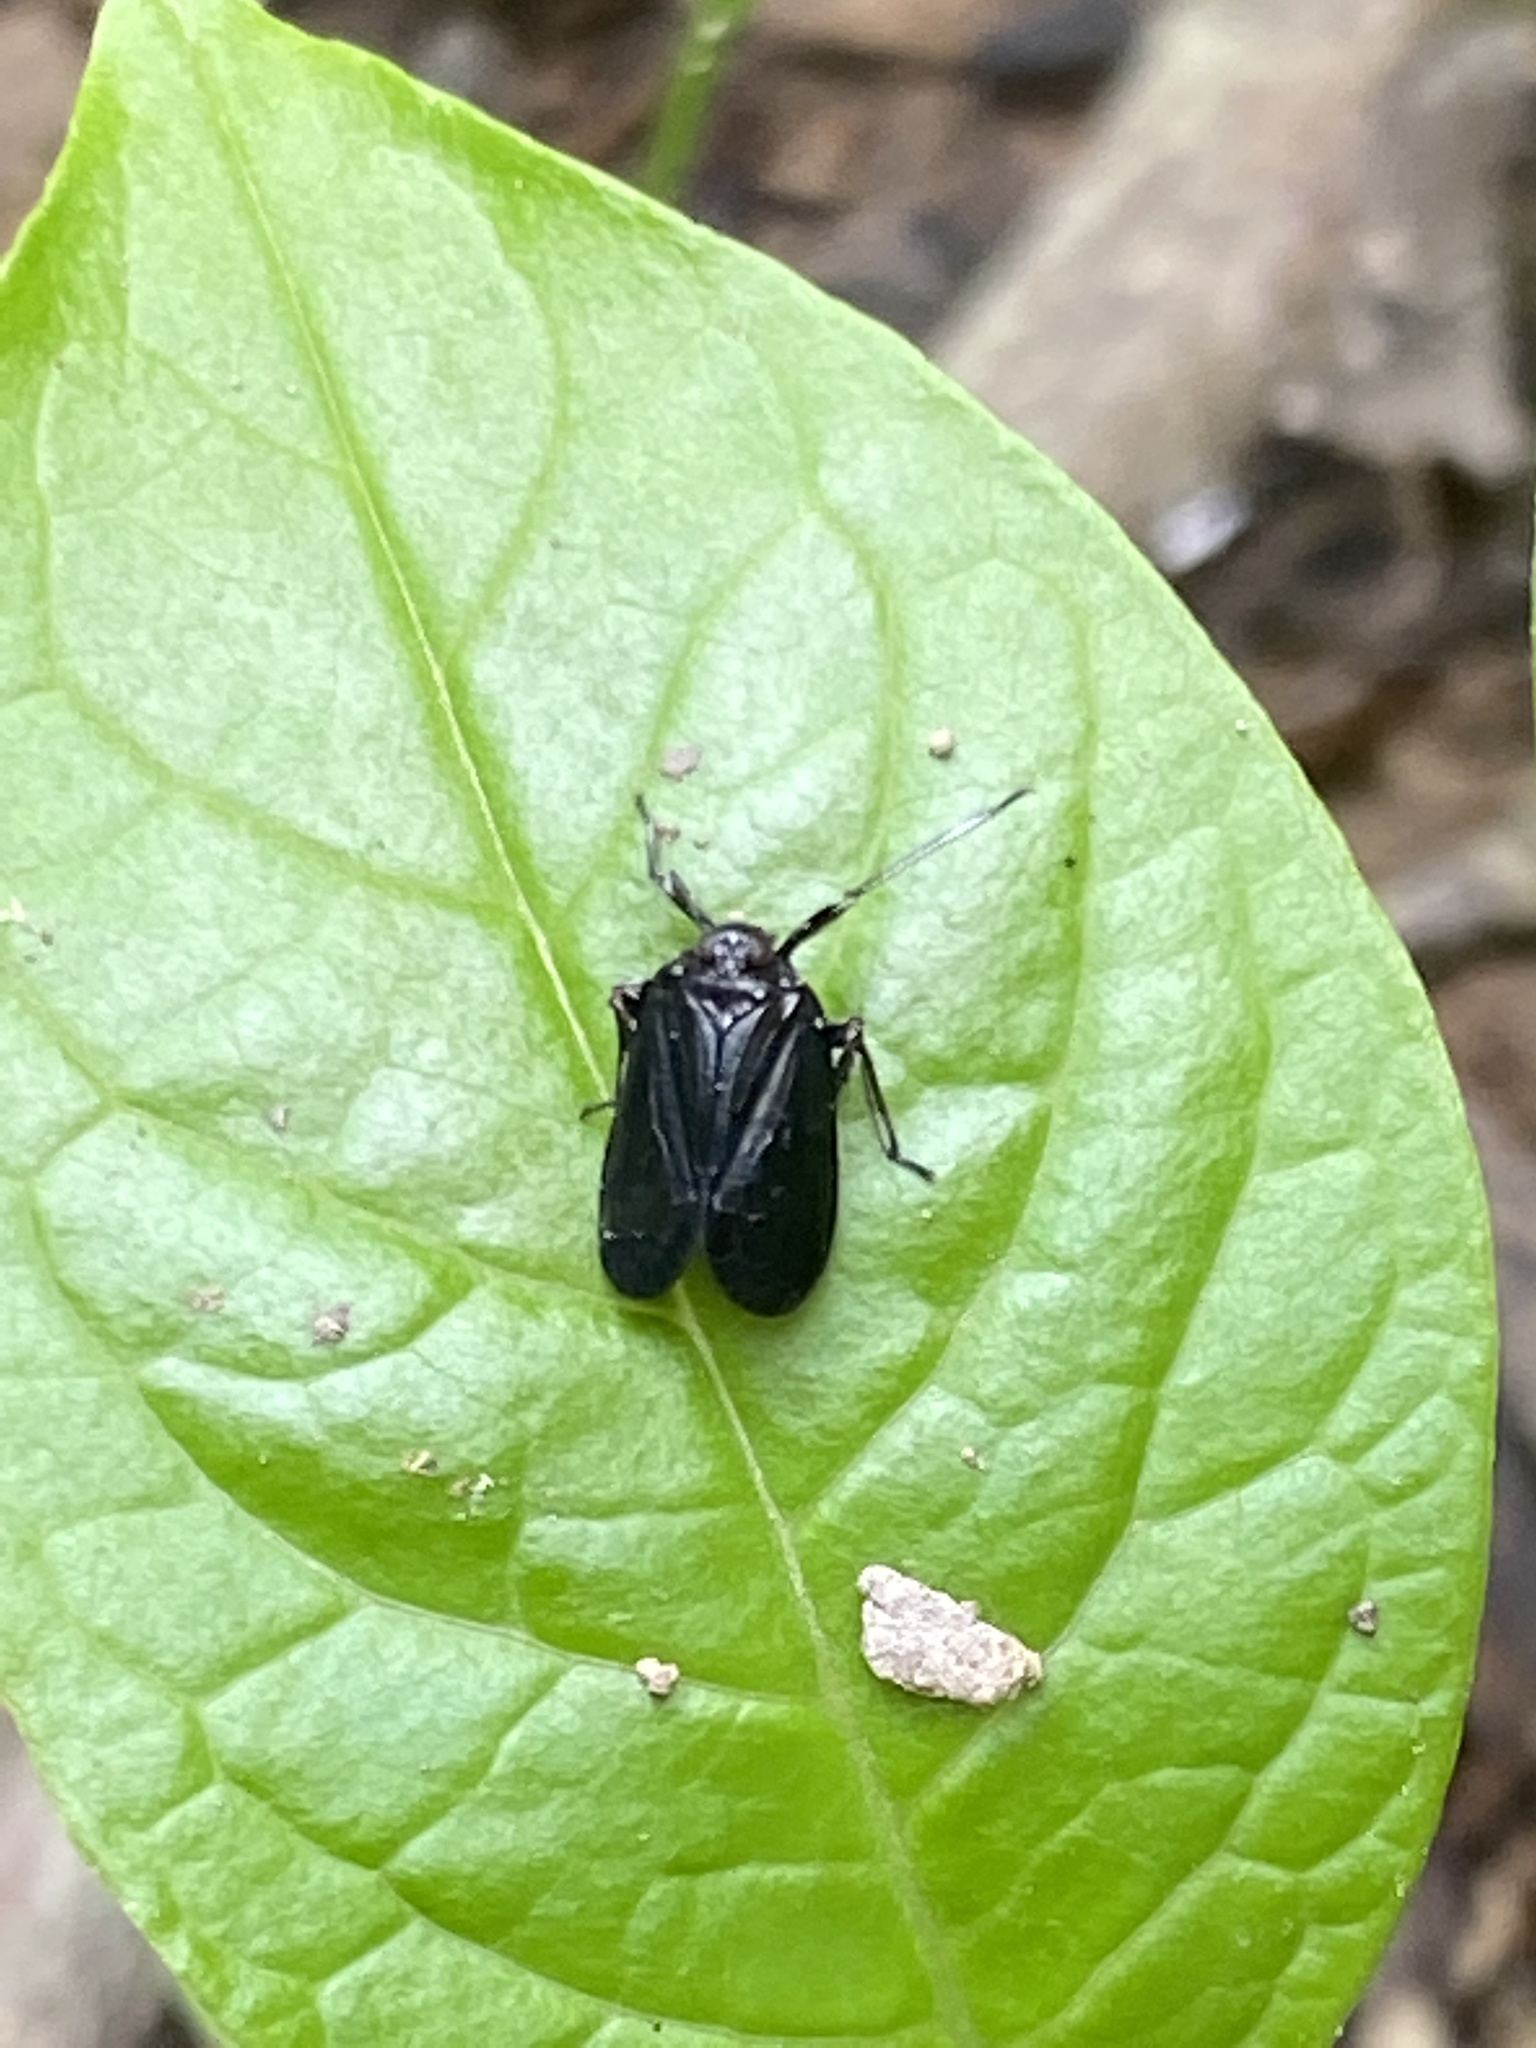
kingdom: Animalia
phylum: Arthropoda
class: Insecta
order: Hemiptera
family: Achilidae
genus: Isodaemon
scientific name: Isodaemon orontes
